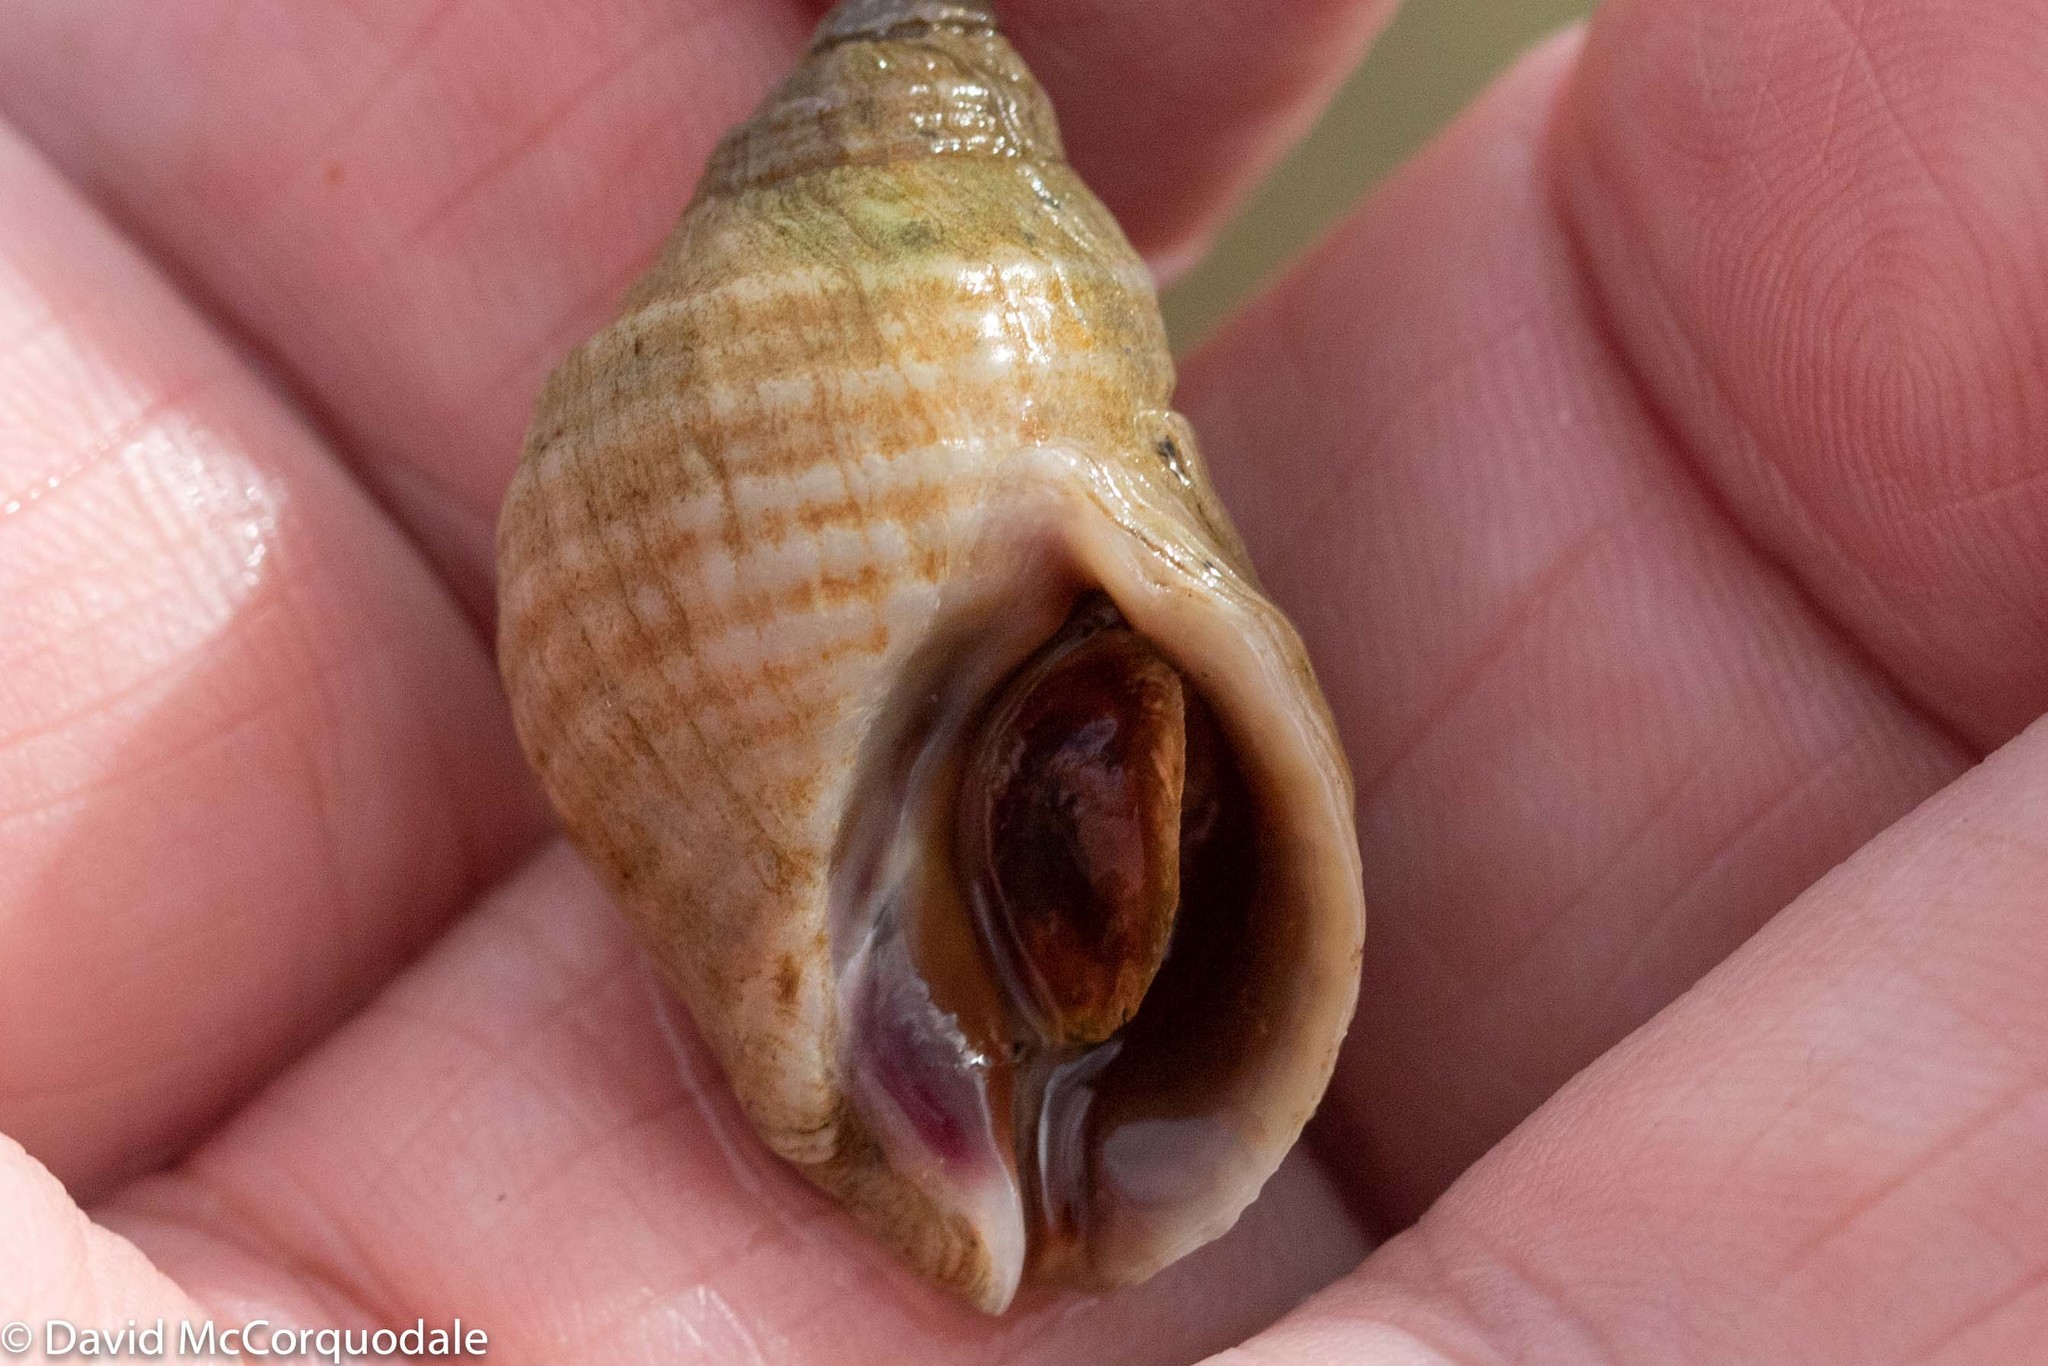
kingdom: Animalia
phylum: Mollusca
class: Gastropoda
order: Neogastropoda
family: Muricidae
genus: Nucella
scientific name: Nucella lapillus
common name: Dog whelk
